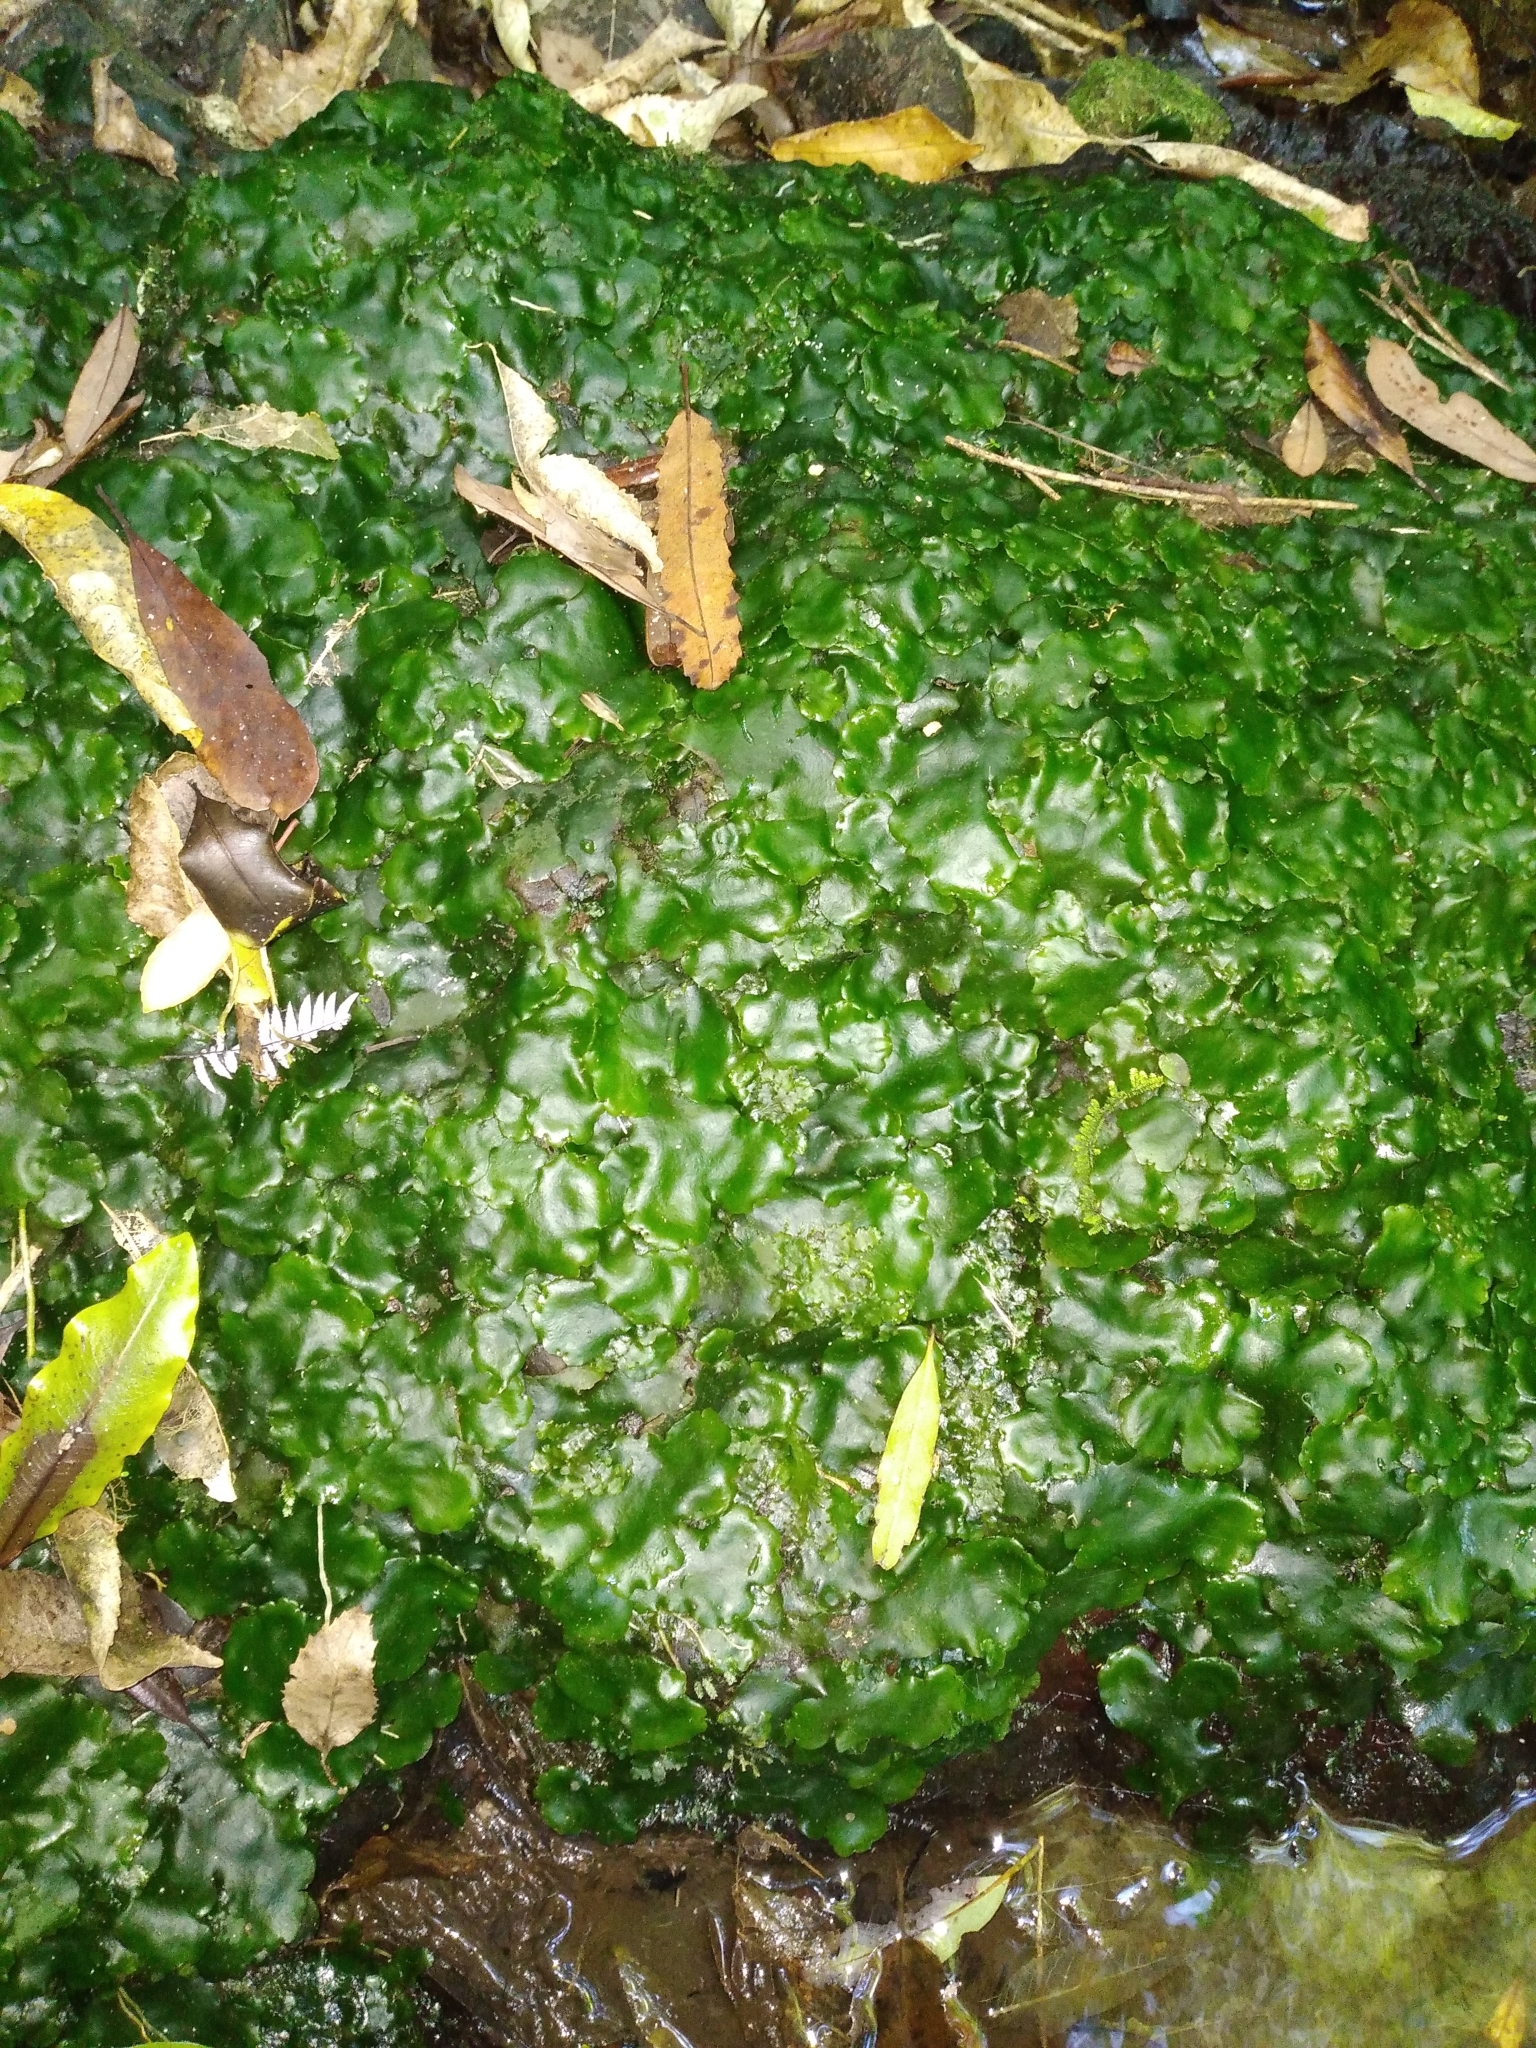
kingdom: Plantae
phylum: Marchantiophyta
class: Marchantiopsida
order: Marchantiales
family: Monocleaceae
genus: Monoclea
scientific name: Monoclea forsteri
